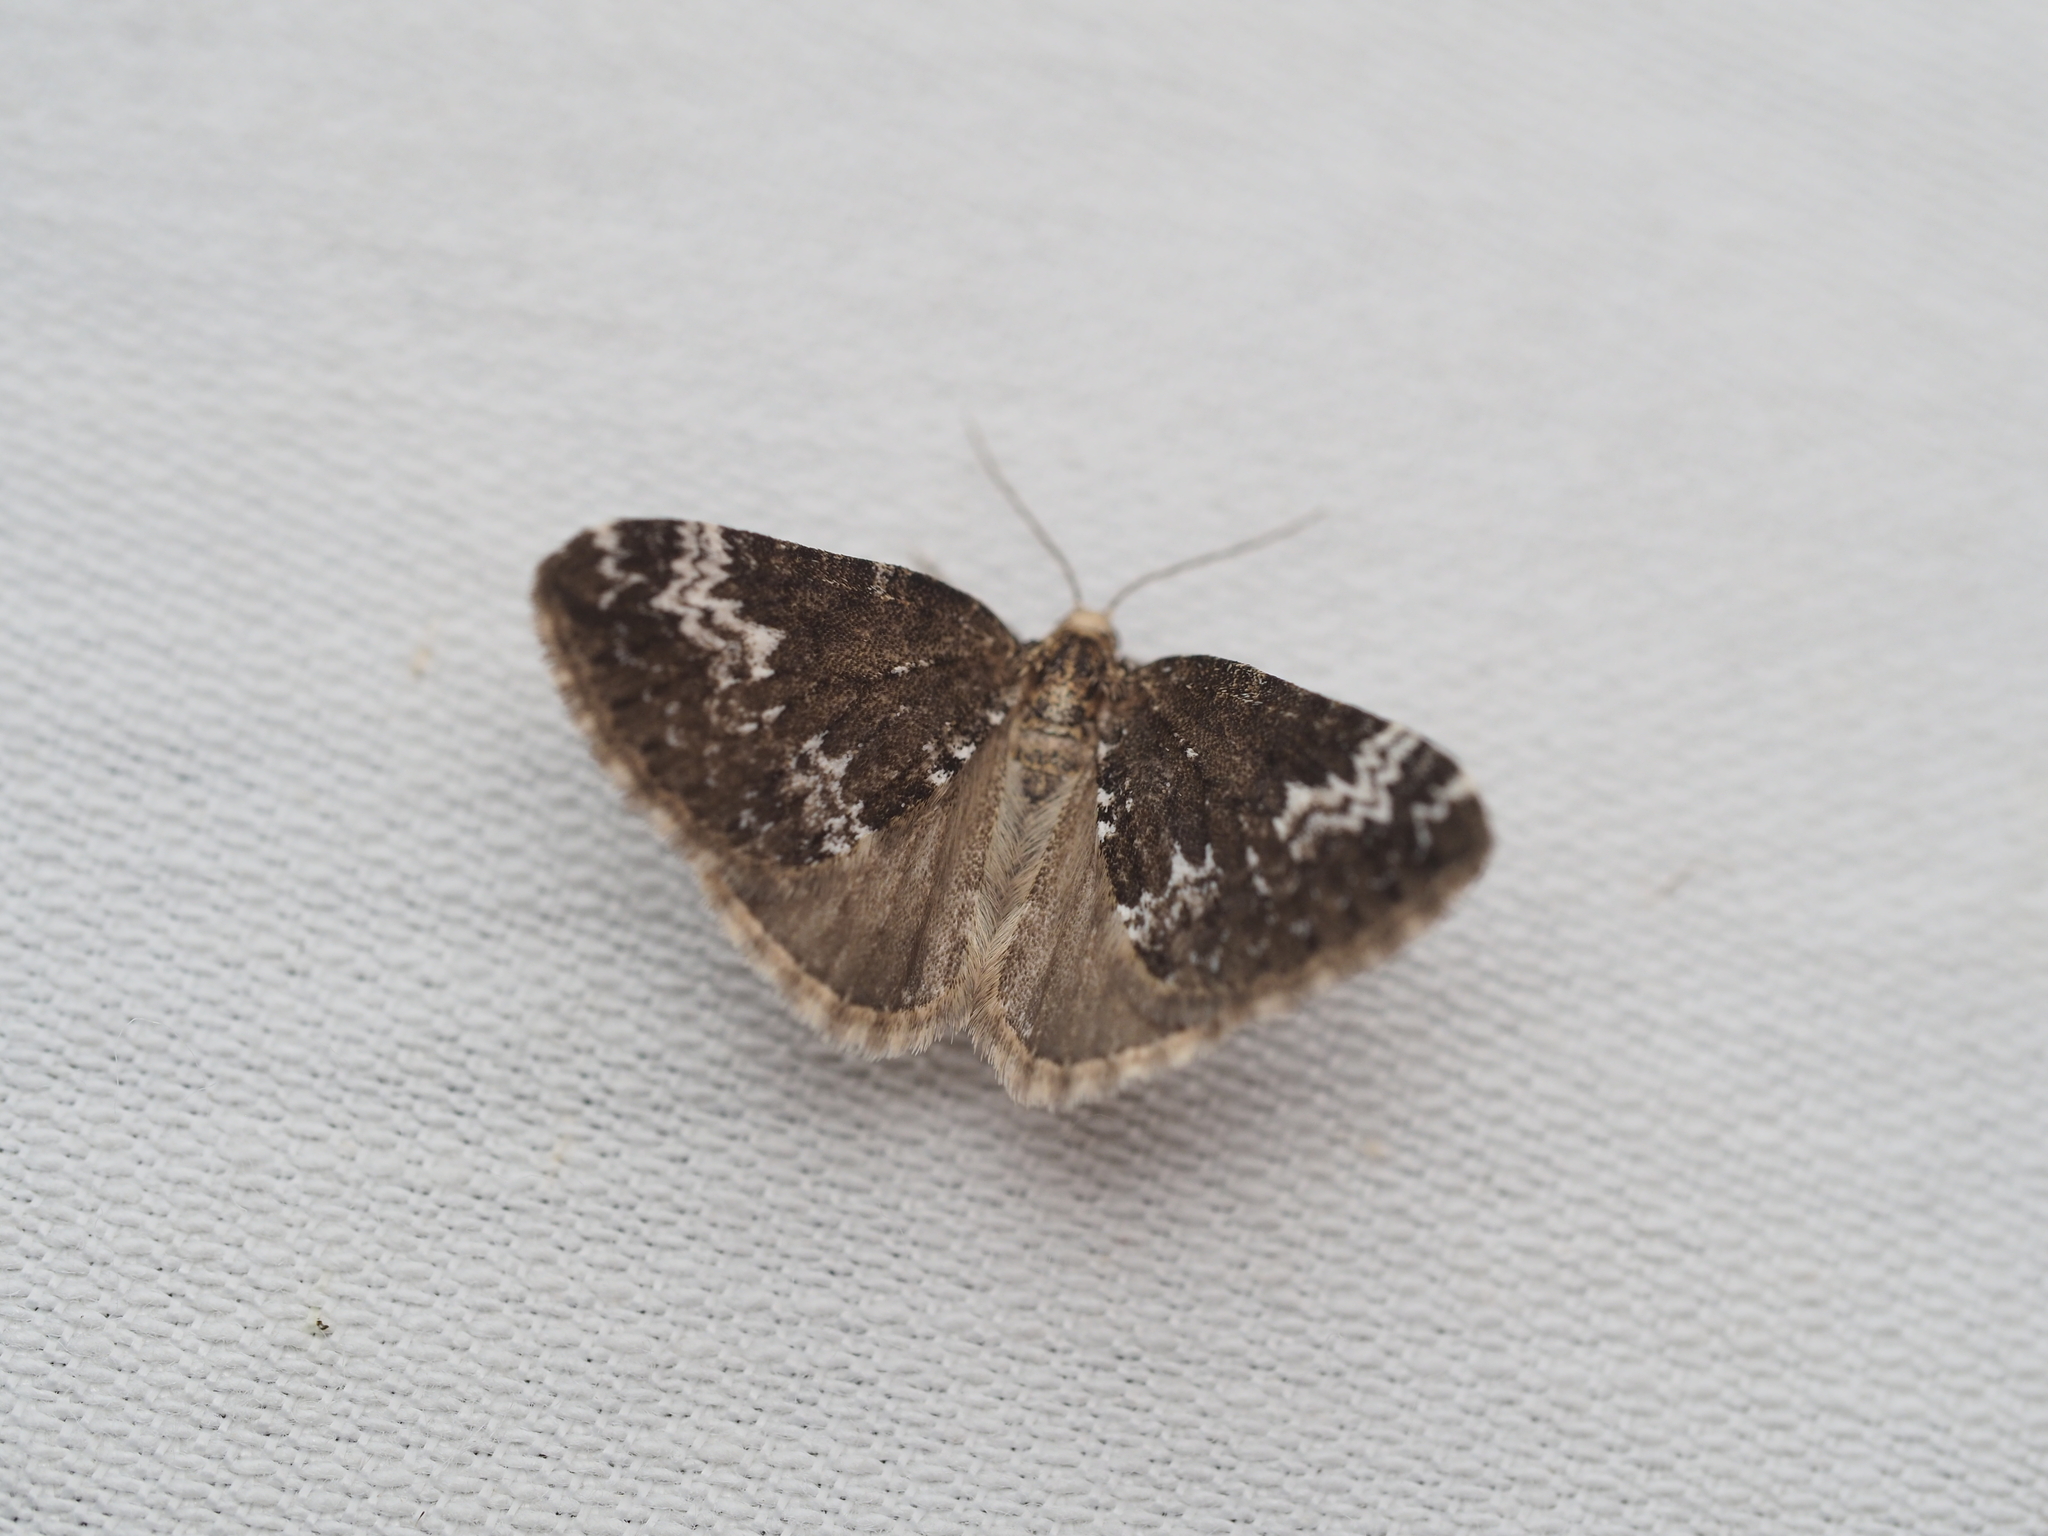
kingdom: Animalia
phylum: Arthropoda
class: Insecta
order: Lepidoptera
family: Geometridae
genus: Perizoma
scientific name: Perizoma alchemillata
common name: Small rivulet
